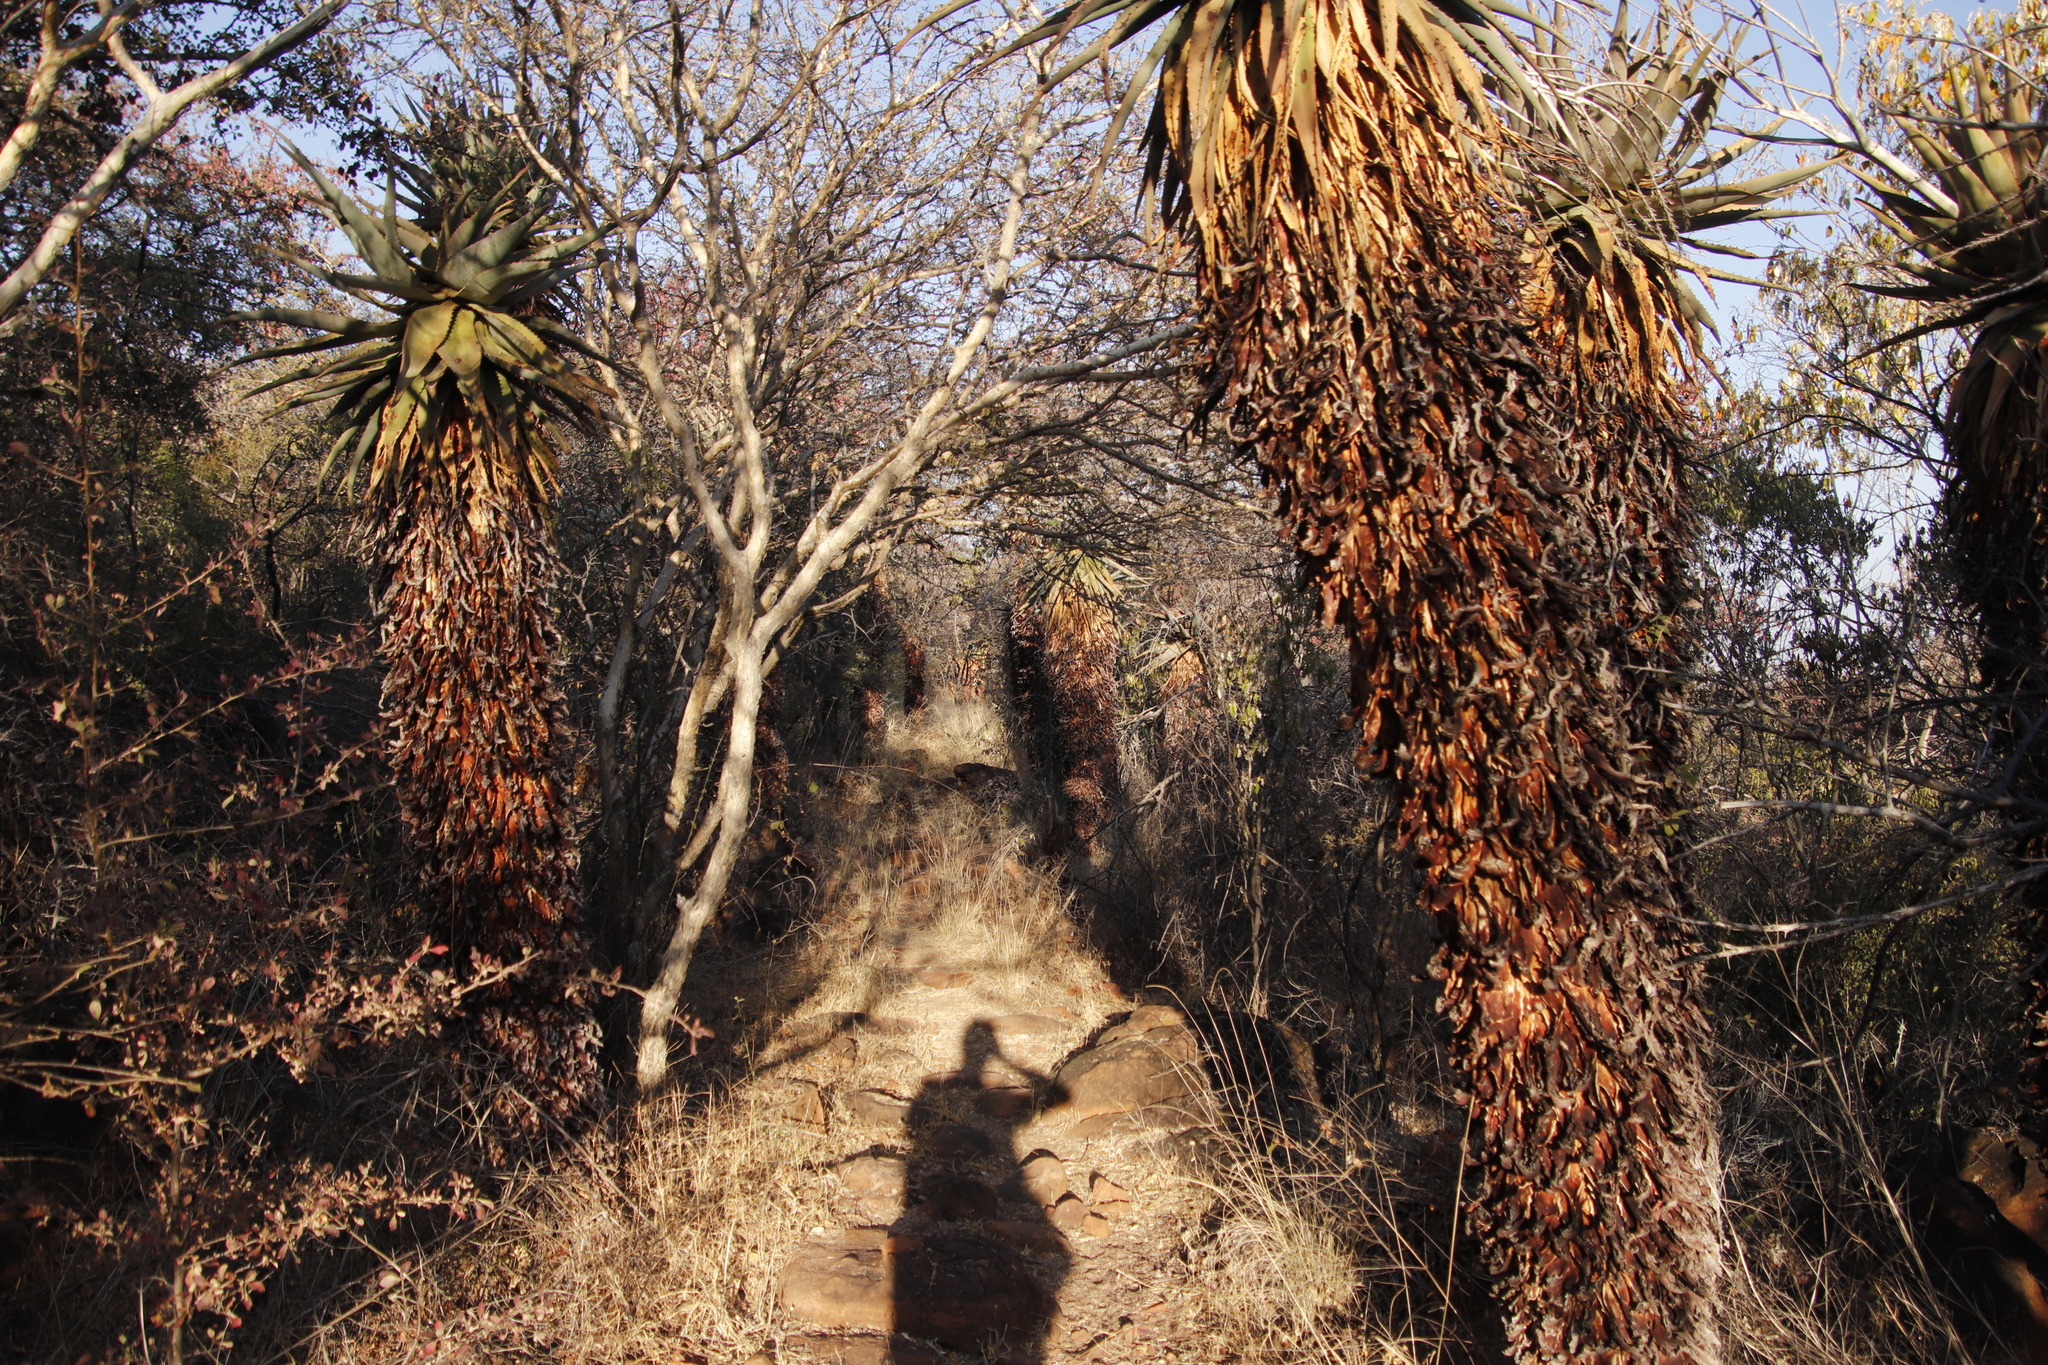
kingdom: Plantae
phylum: Tracheophyta
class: Liliopsida
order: Asparagales
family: Asphodelaceae
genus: Aloe
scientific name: Aloe littoralis
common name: Luanda tree aloe
